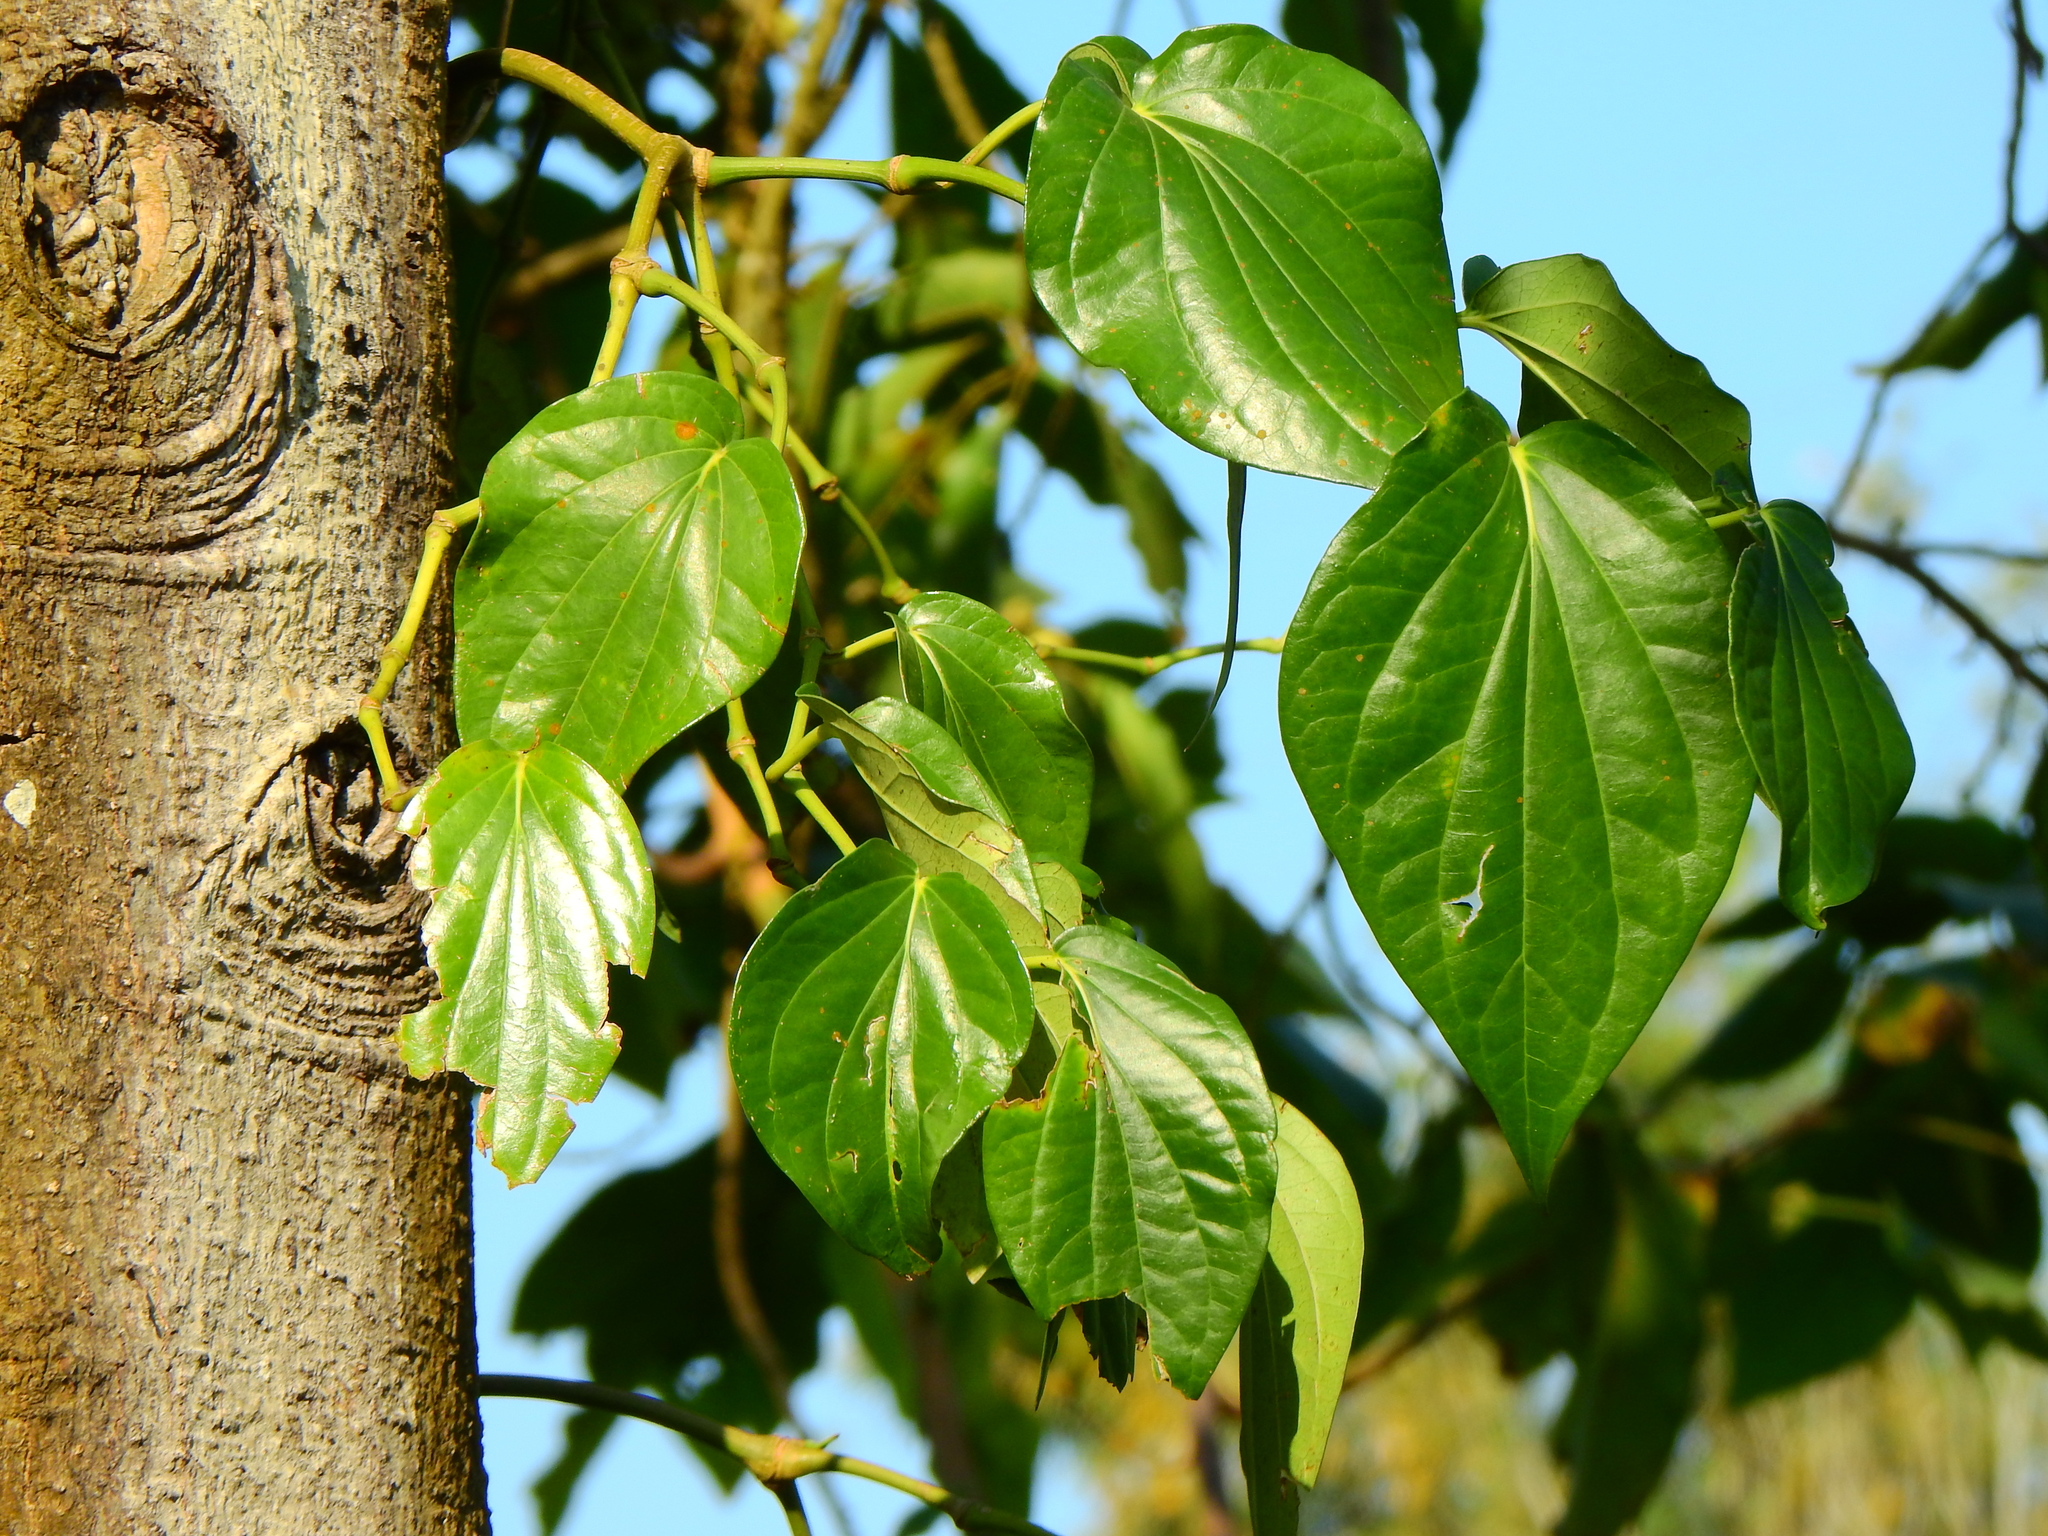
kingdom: Plantae
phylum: Tracheophyta
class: Magnoliopsida
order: Piperales
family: Piperaceae
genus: Piper
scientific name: Piper betle
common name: Betel pepper
